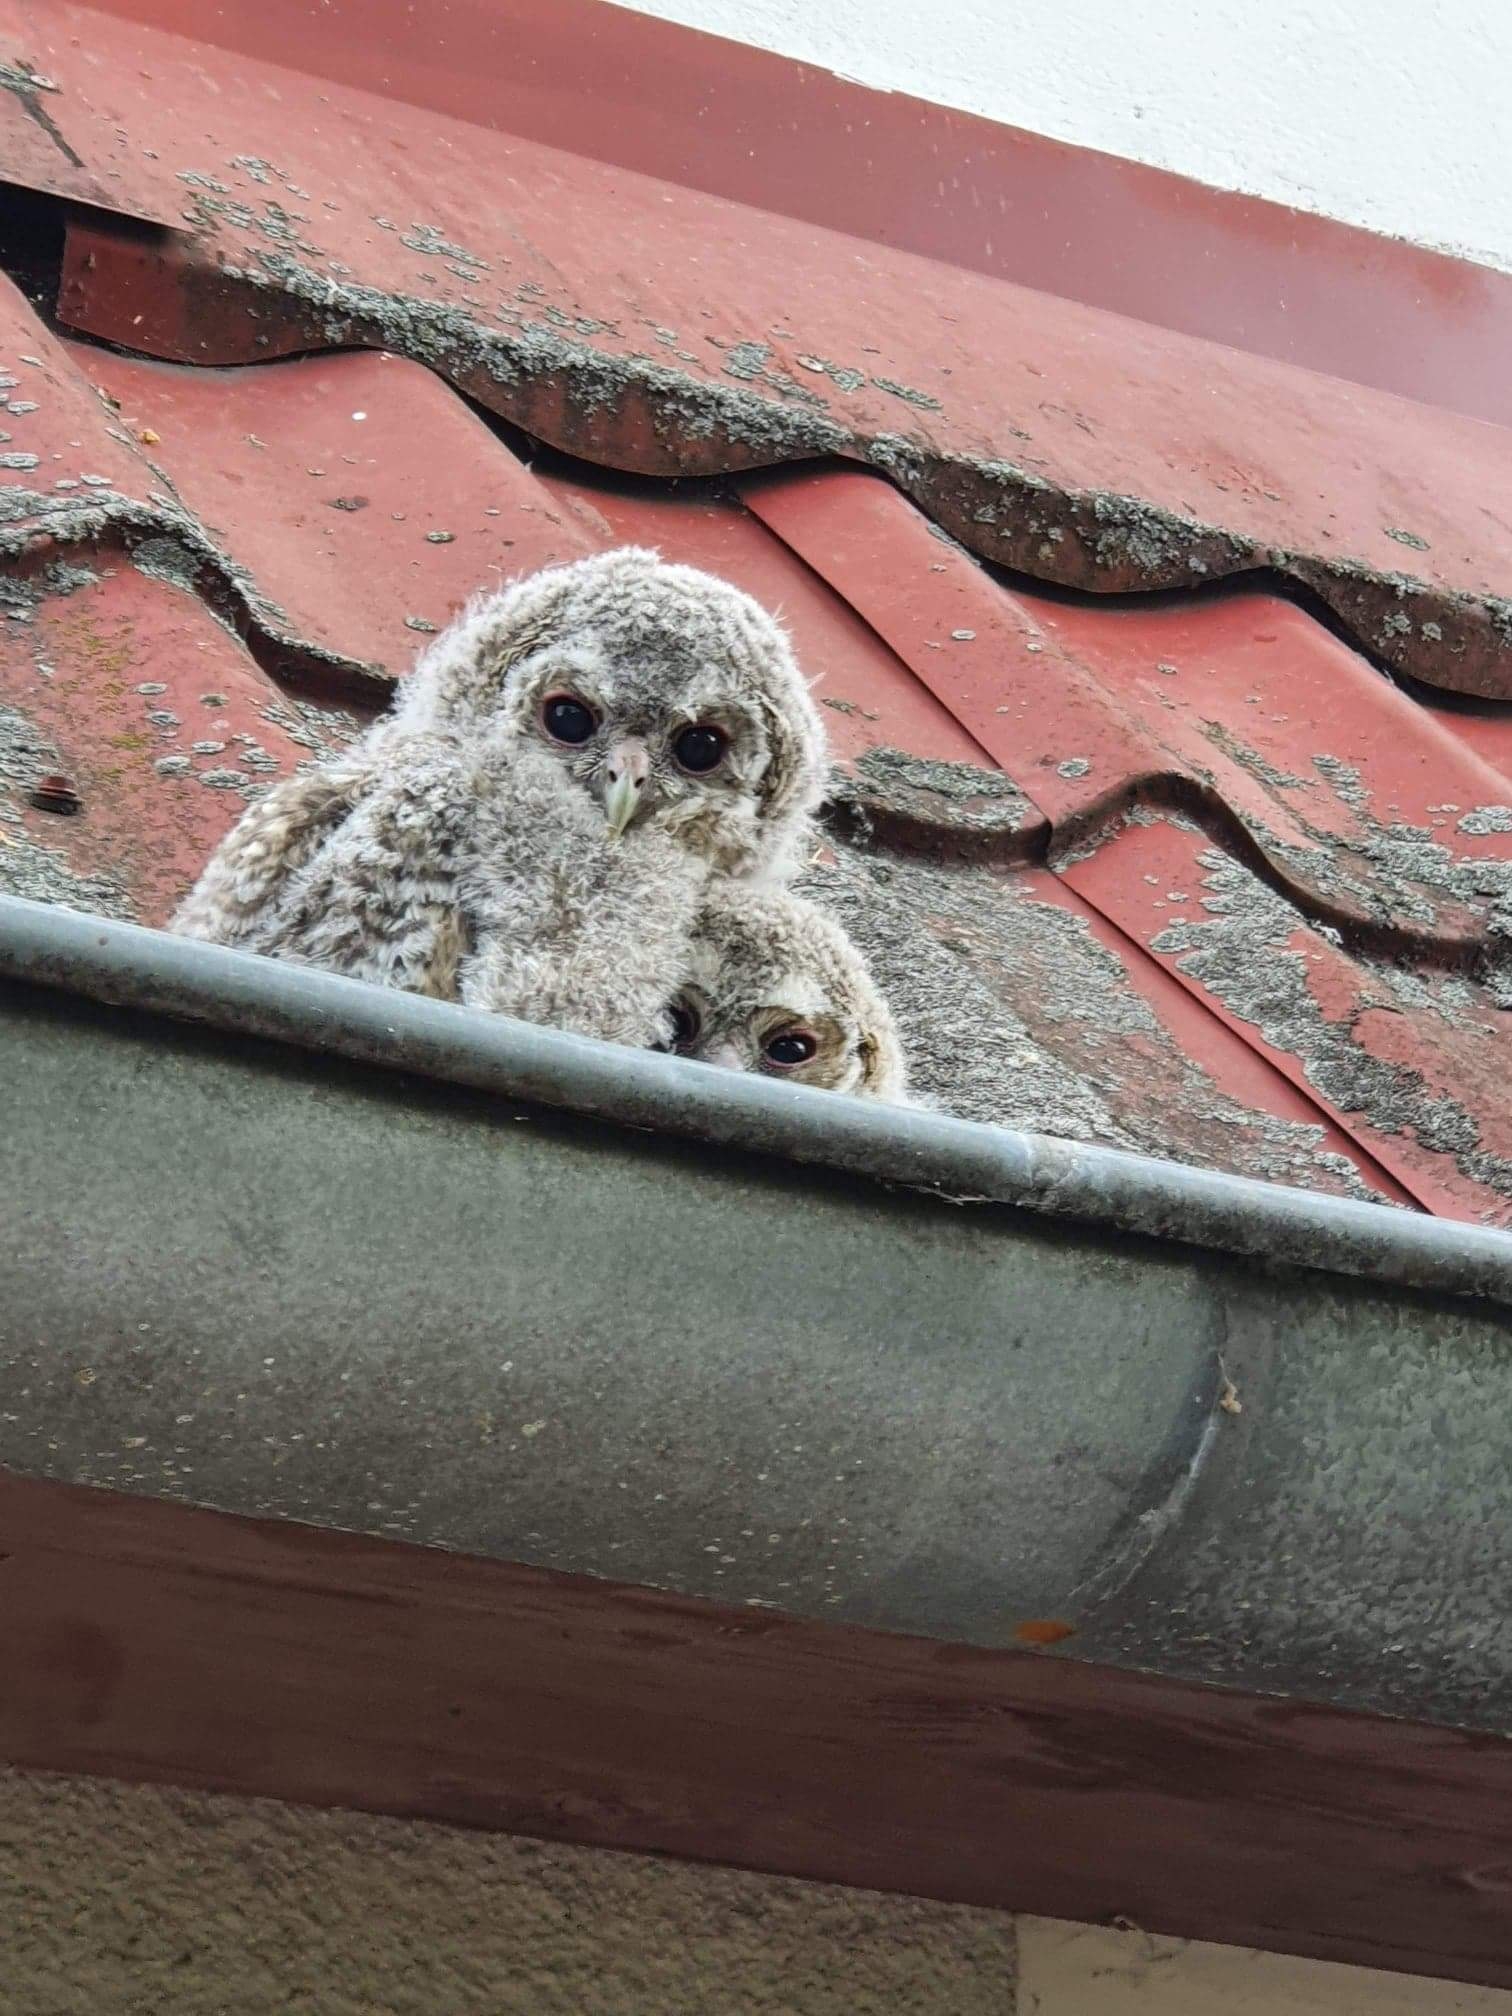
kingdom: Animalia
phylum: Chordata
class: Aves
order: Strigiformes
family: Strigidae
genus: Strix
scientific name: Strix aluco
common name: Tawny owl
